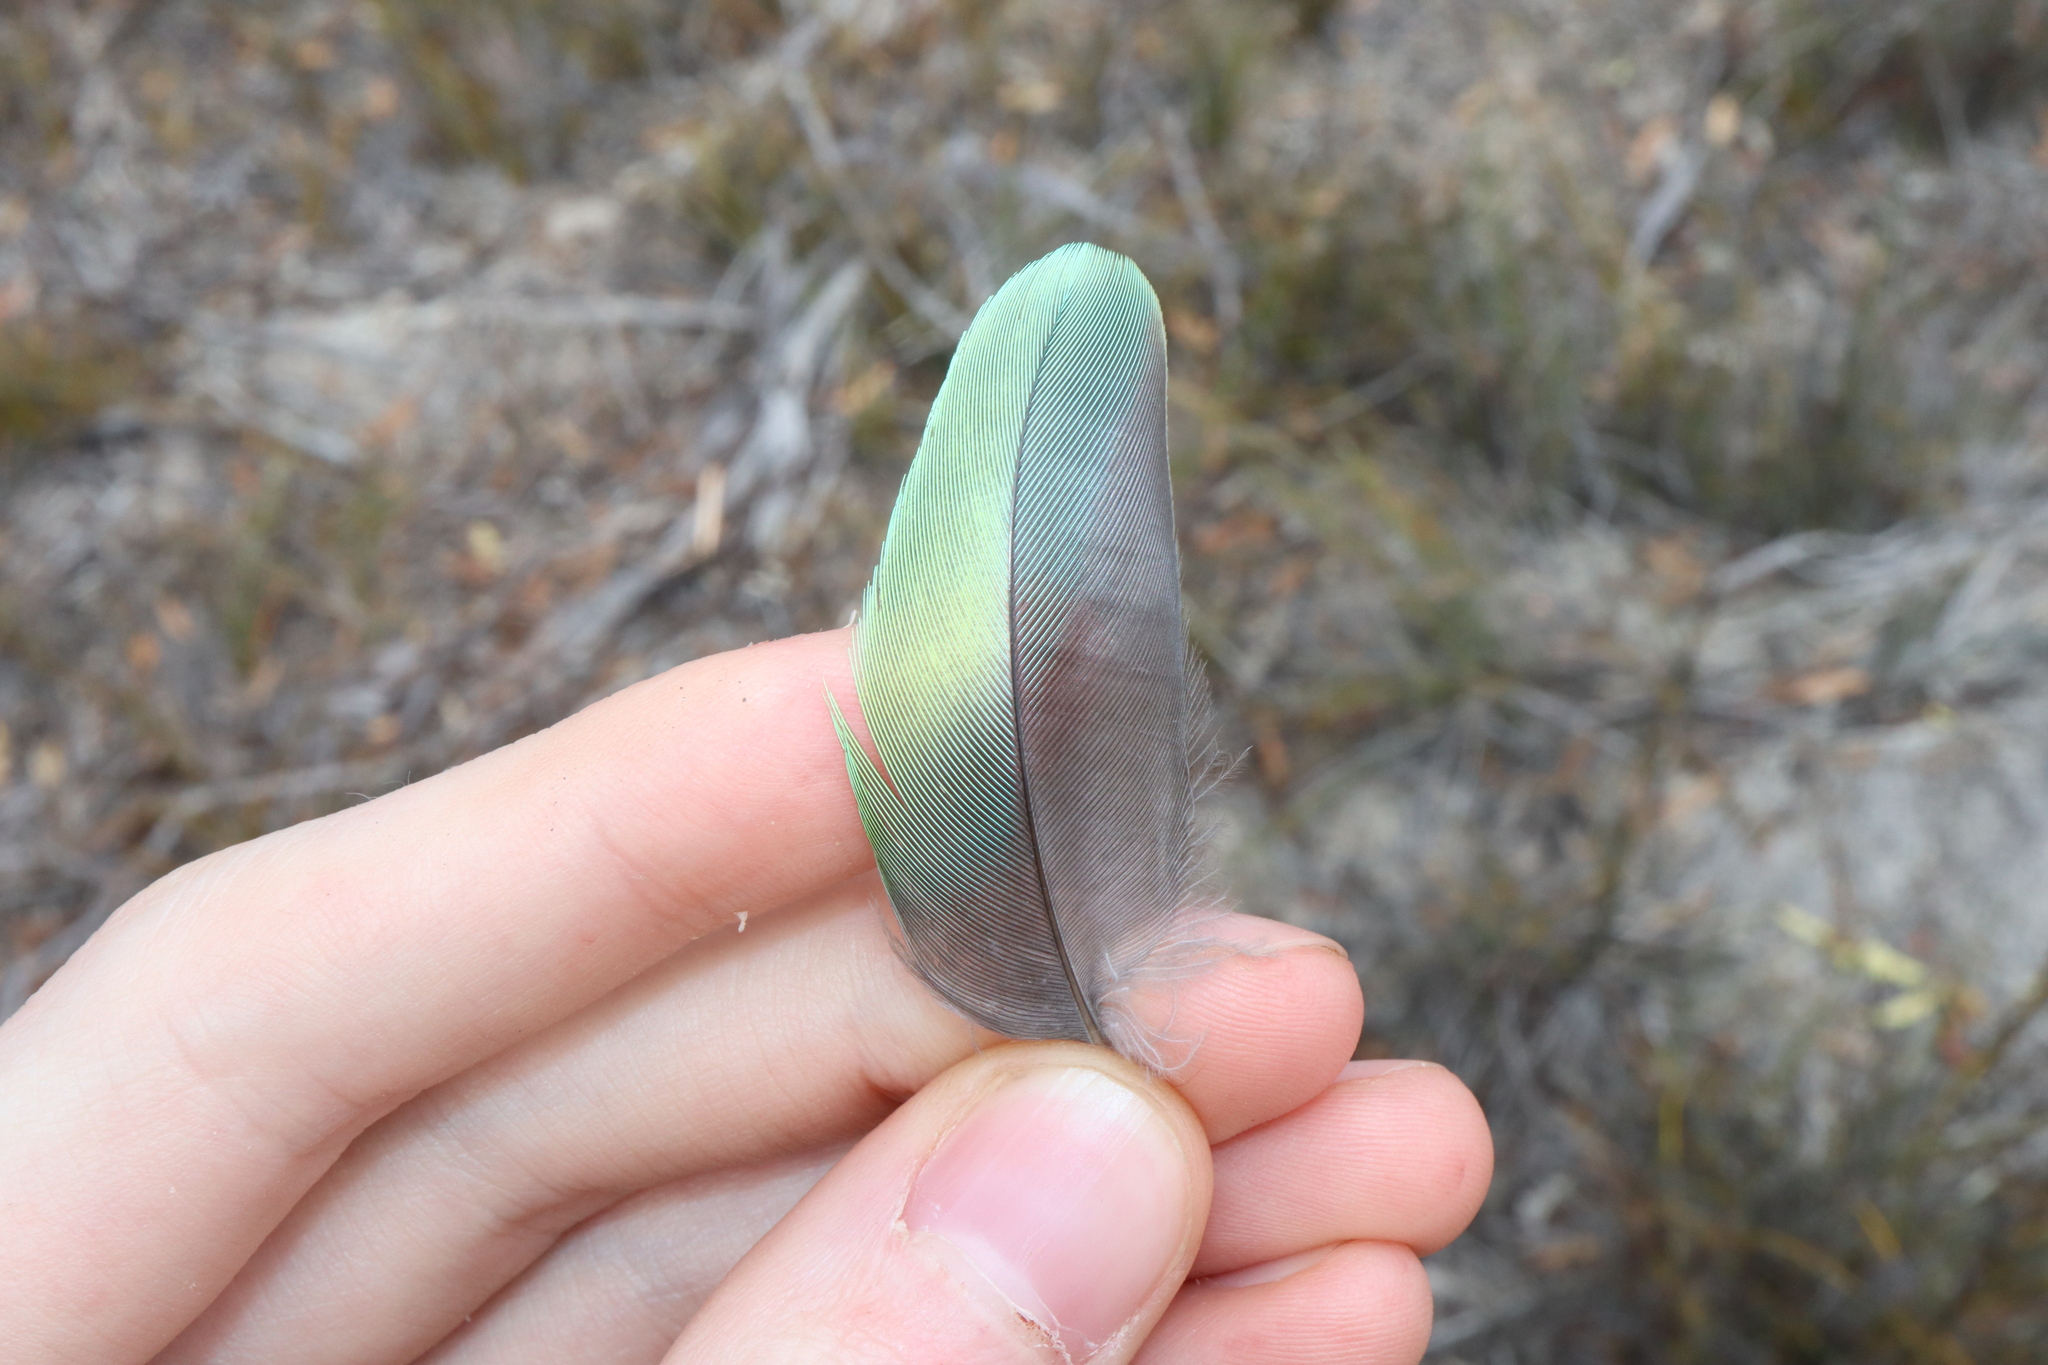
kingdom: Animalia
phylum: Chordata
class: Aves
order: Psittaciformes
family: Psittacidae
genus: Barnardius
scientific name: Barnardius zonarius
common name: Australian ringneck
